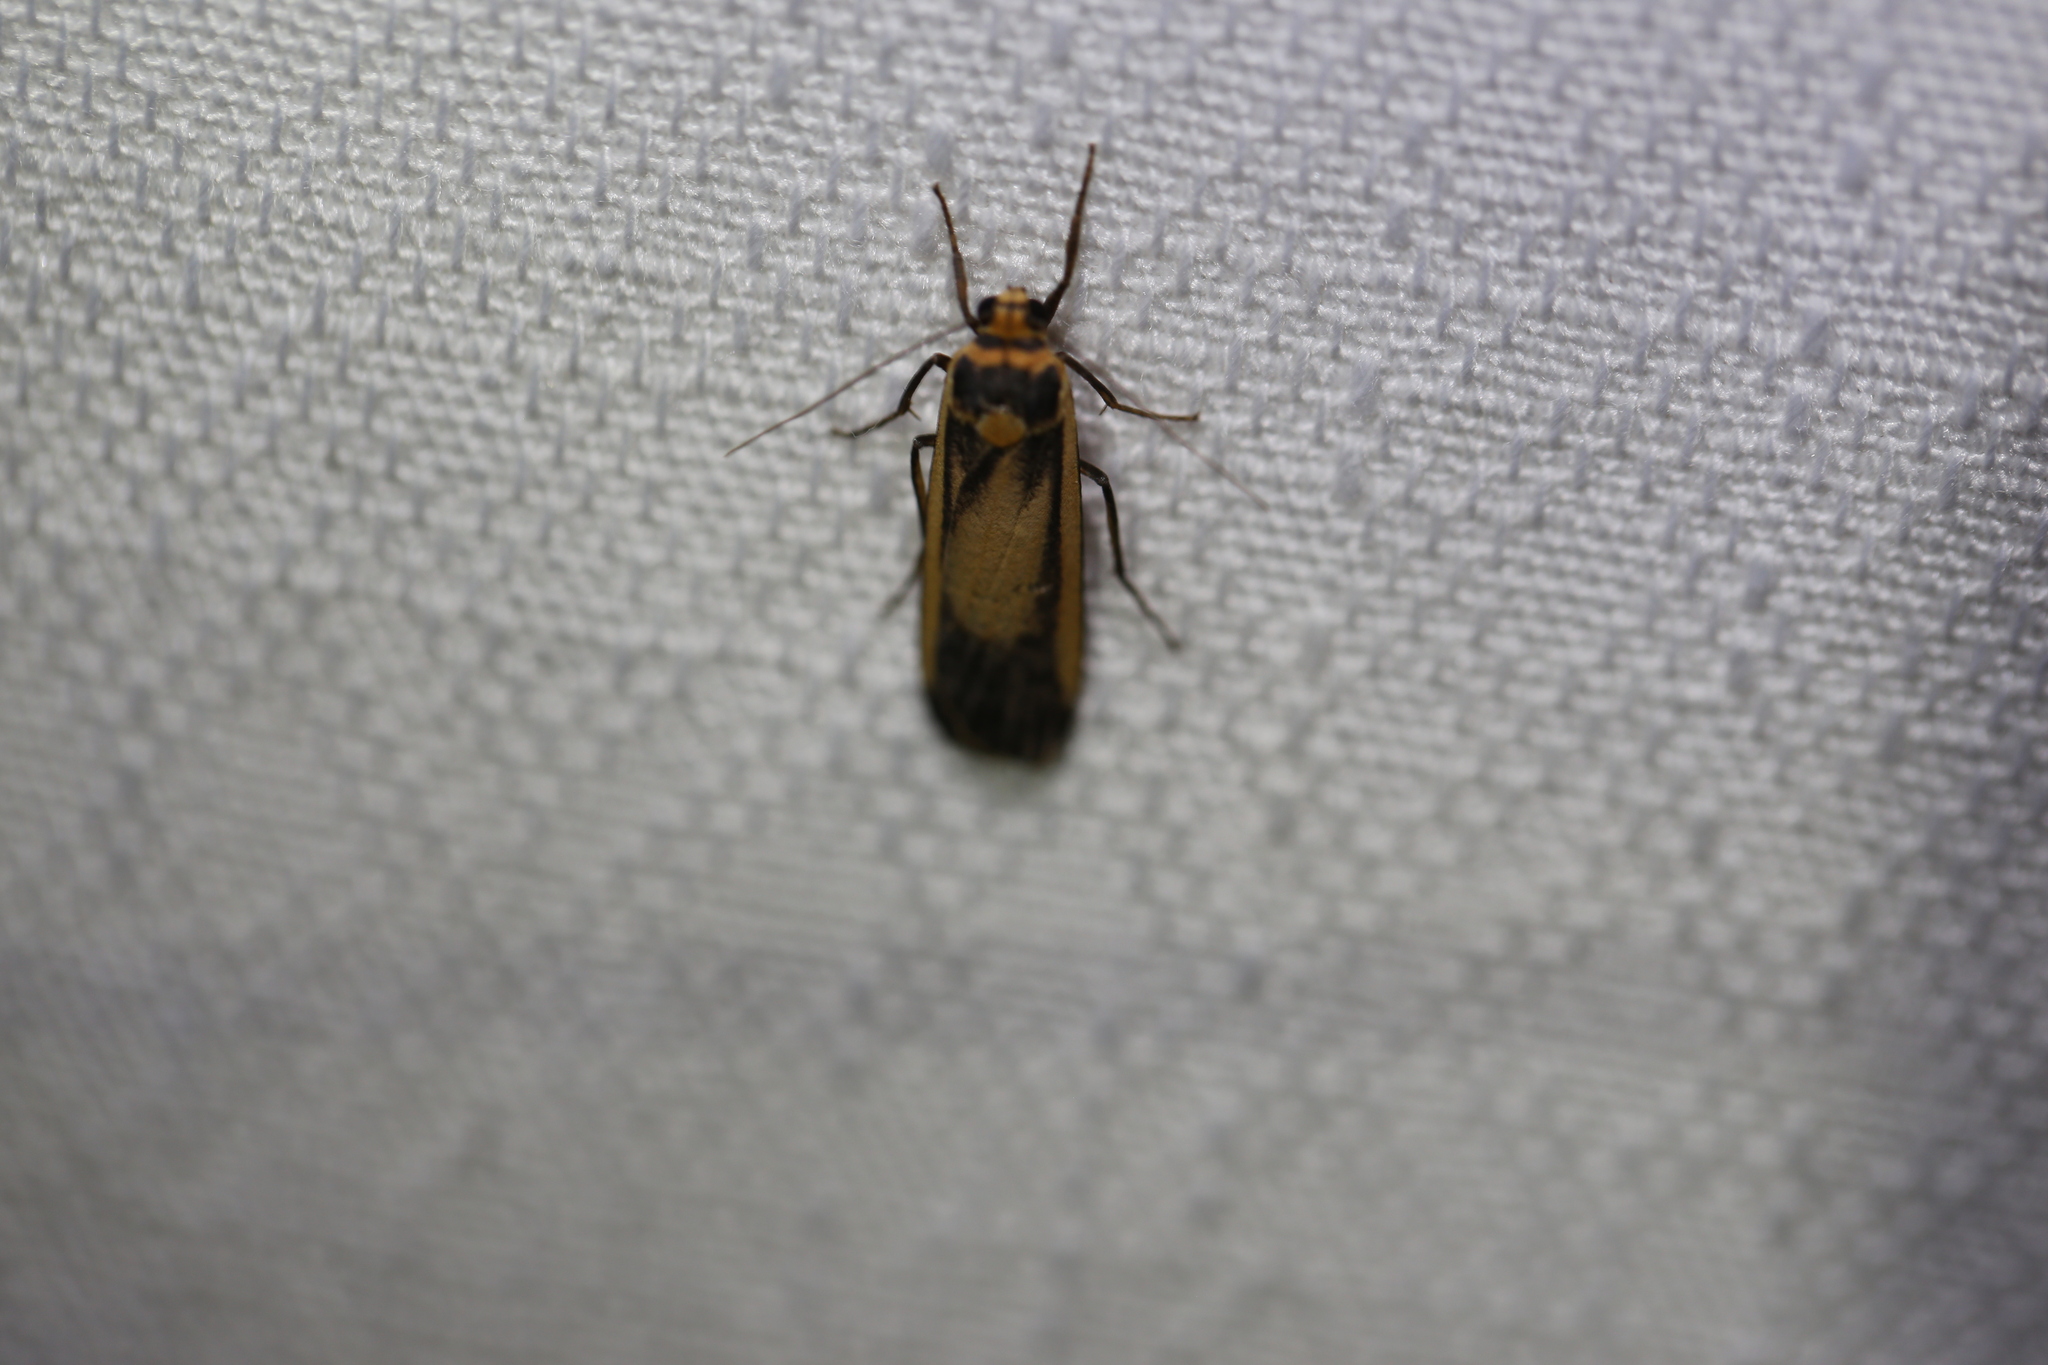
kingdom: Animalia
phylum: Arthropoda
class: Insecta
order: Lepidoptera
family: Erebidae
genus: Brunia
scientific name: Brunia replana
